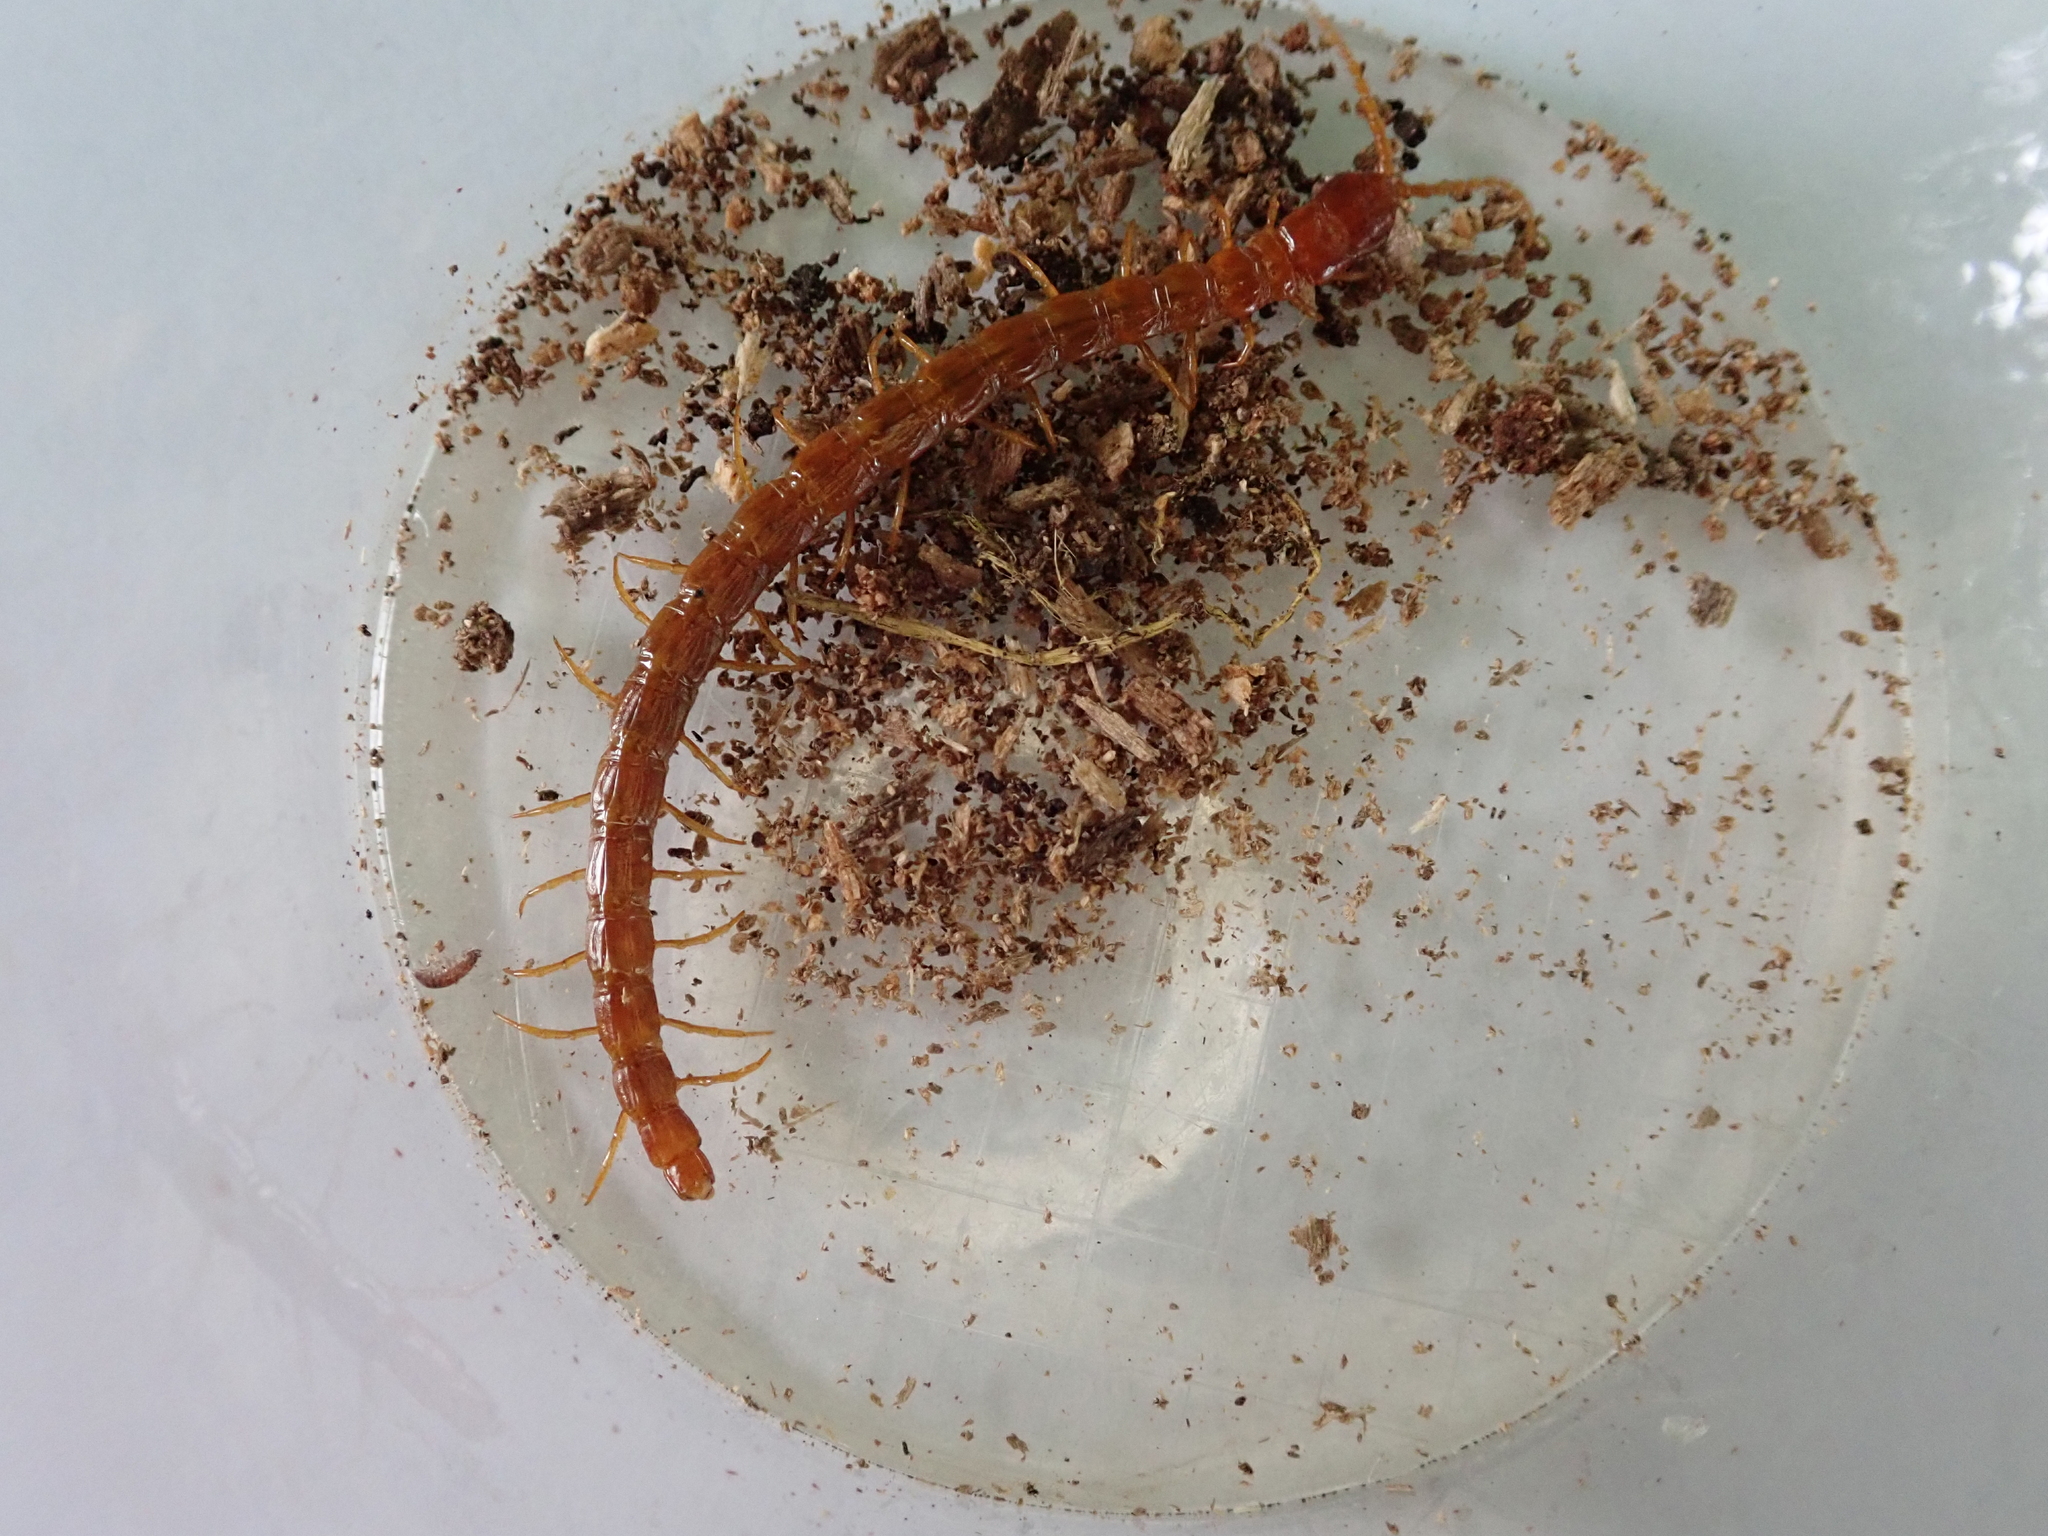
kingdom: Animalia
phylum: Arthropoda
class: Chilopoda
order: Scolopendromorpha
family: Cryptopidae
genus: Cryptops
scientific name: Cryptops
